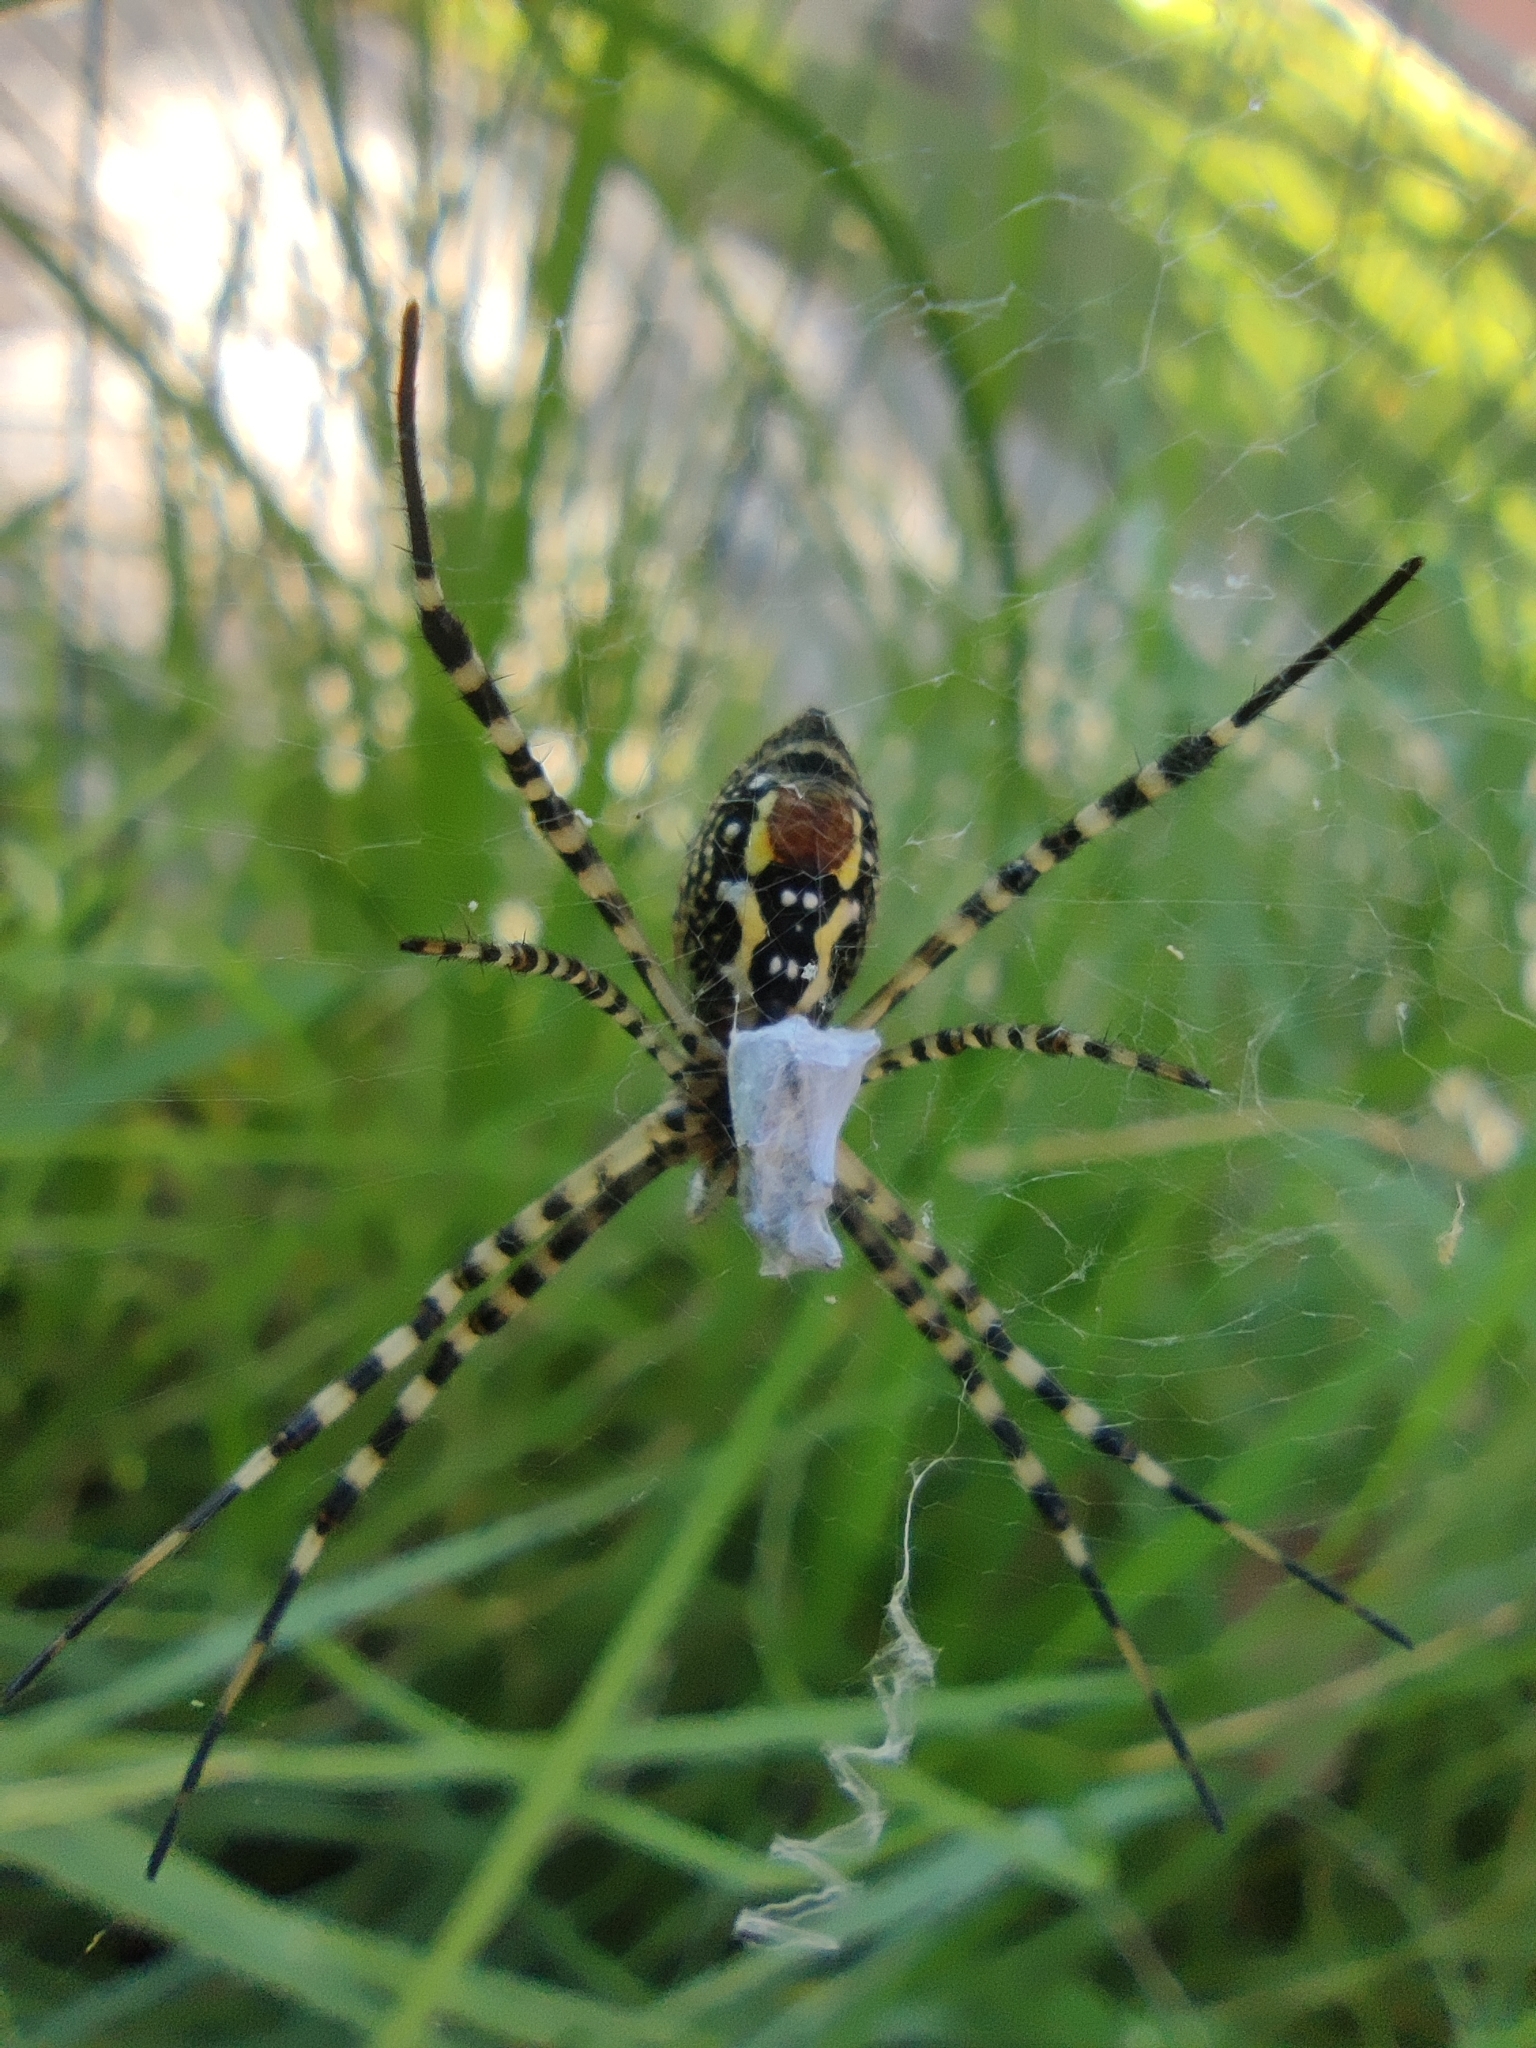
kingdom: Animalia
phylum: Arthropoda
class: Arachnida
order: Araneae
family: Araneidae
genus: Argiope
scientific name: Argiope trifasciata
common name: Banded garden spider
